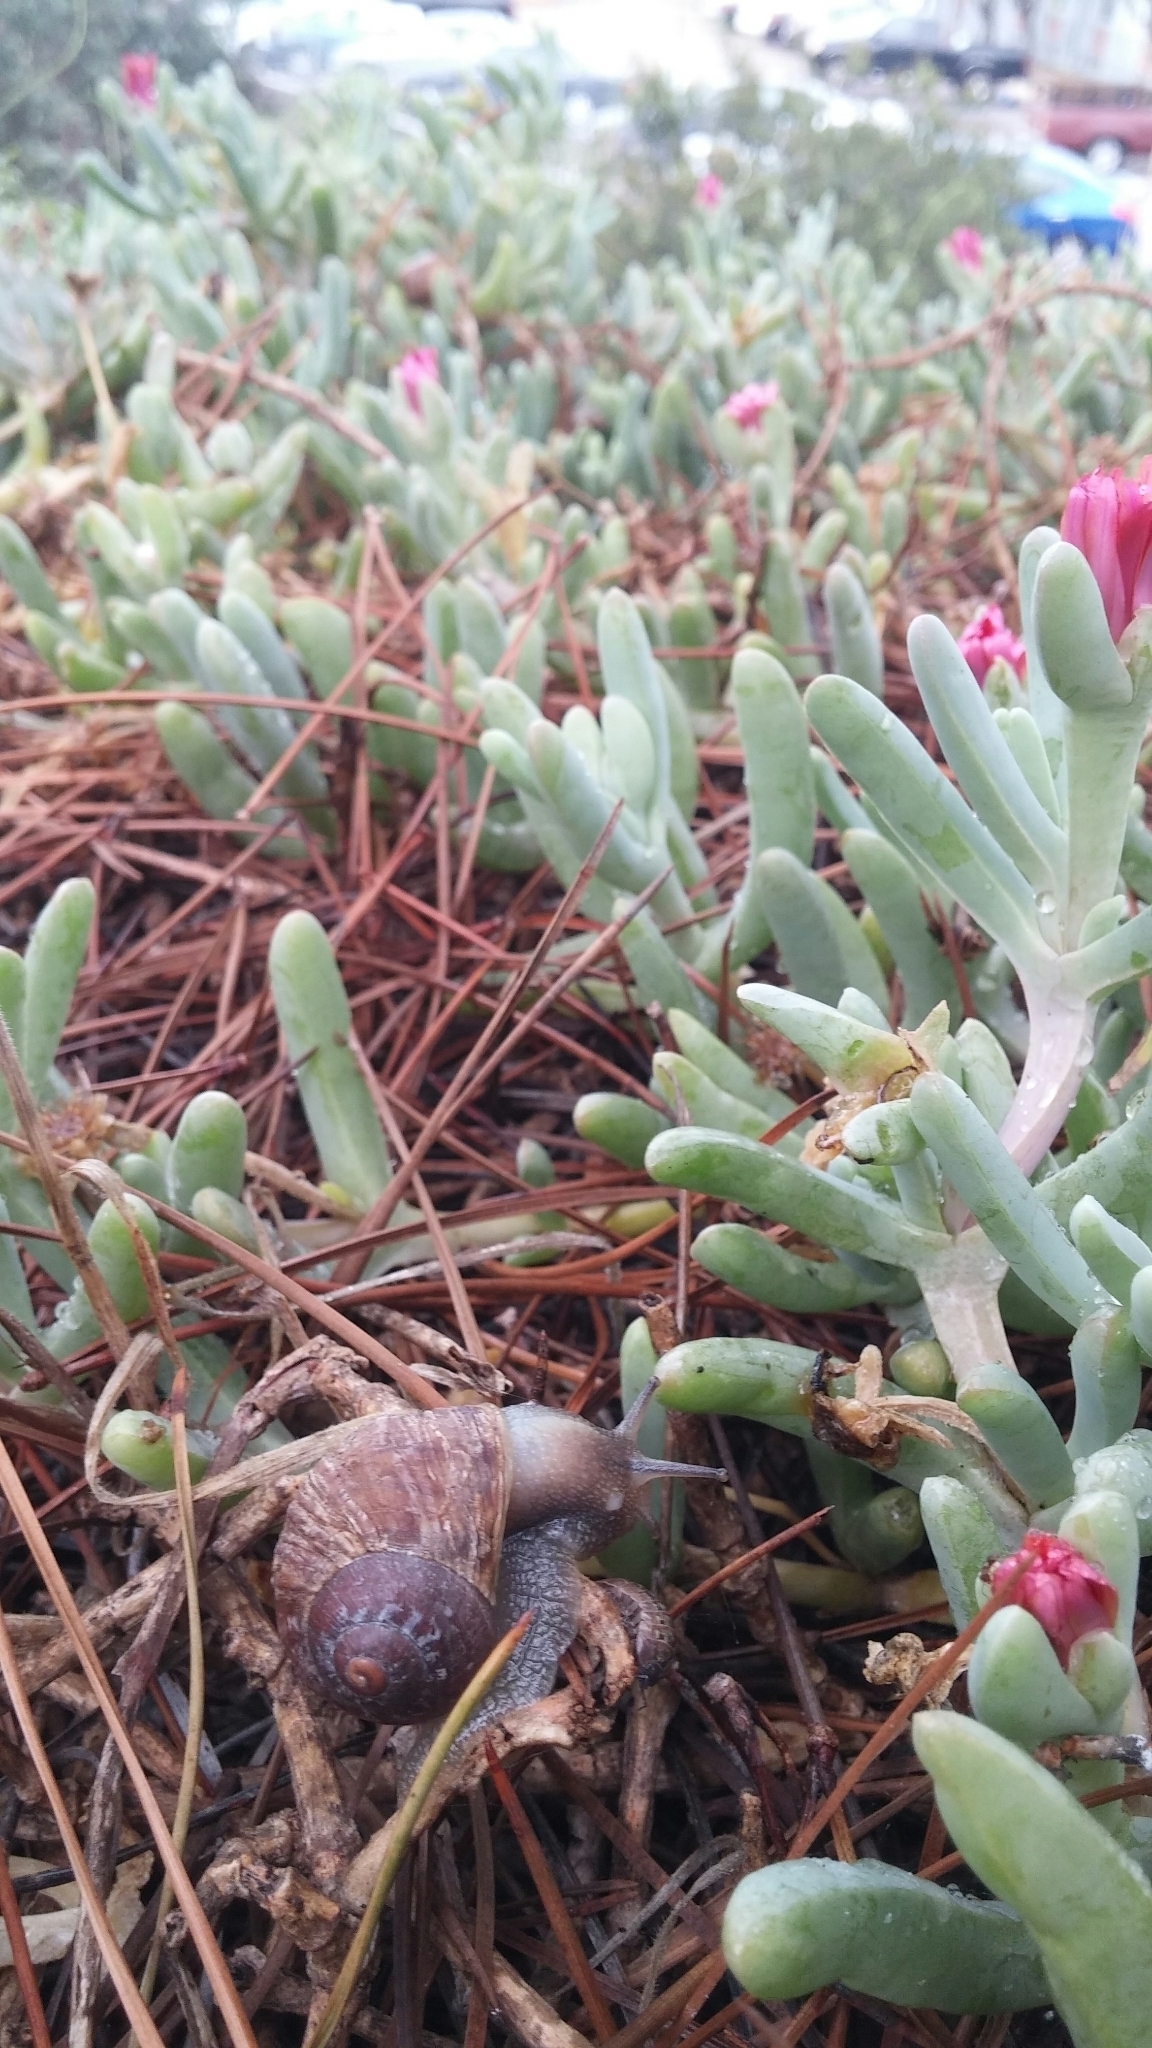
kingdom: Animalia
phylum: Mollusca
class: Gastropoda
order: Stylommatophora
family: Helicidae
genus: Cornu
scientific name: Cornu aspersum
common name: Brown garden snail
